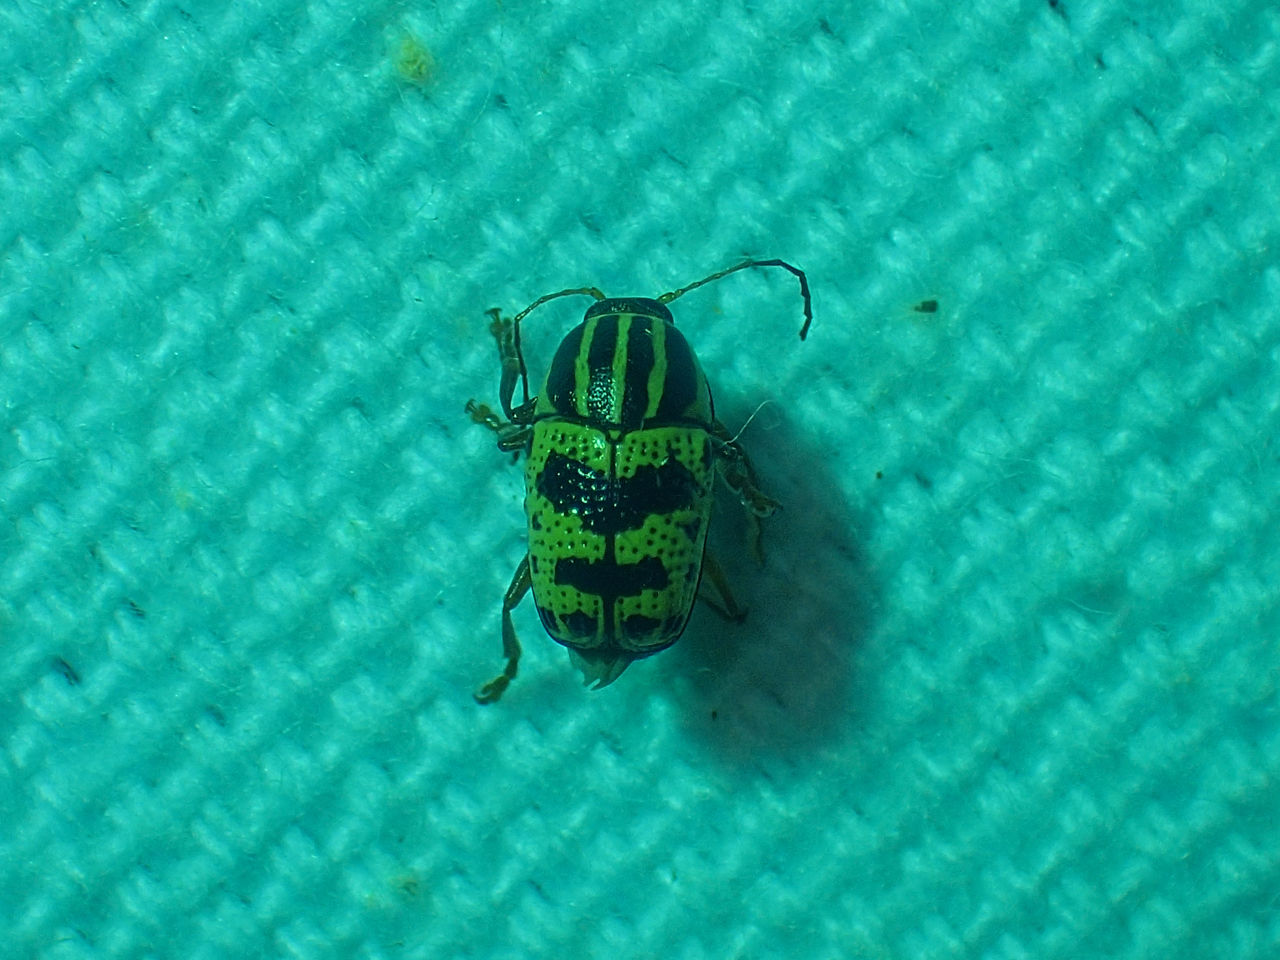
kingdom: Animalia
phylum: Arthropoda
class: Insecta
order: Coleoptera
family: Chrysomelidae
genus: Cryptocephalus
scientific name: Cryptocephalus leucomelas
